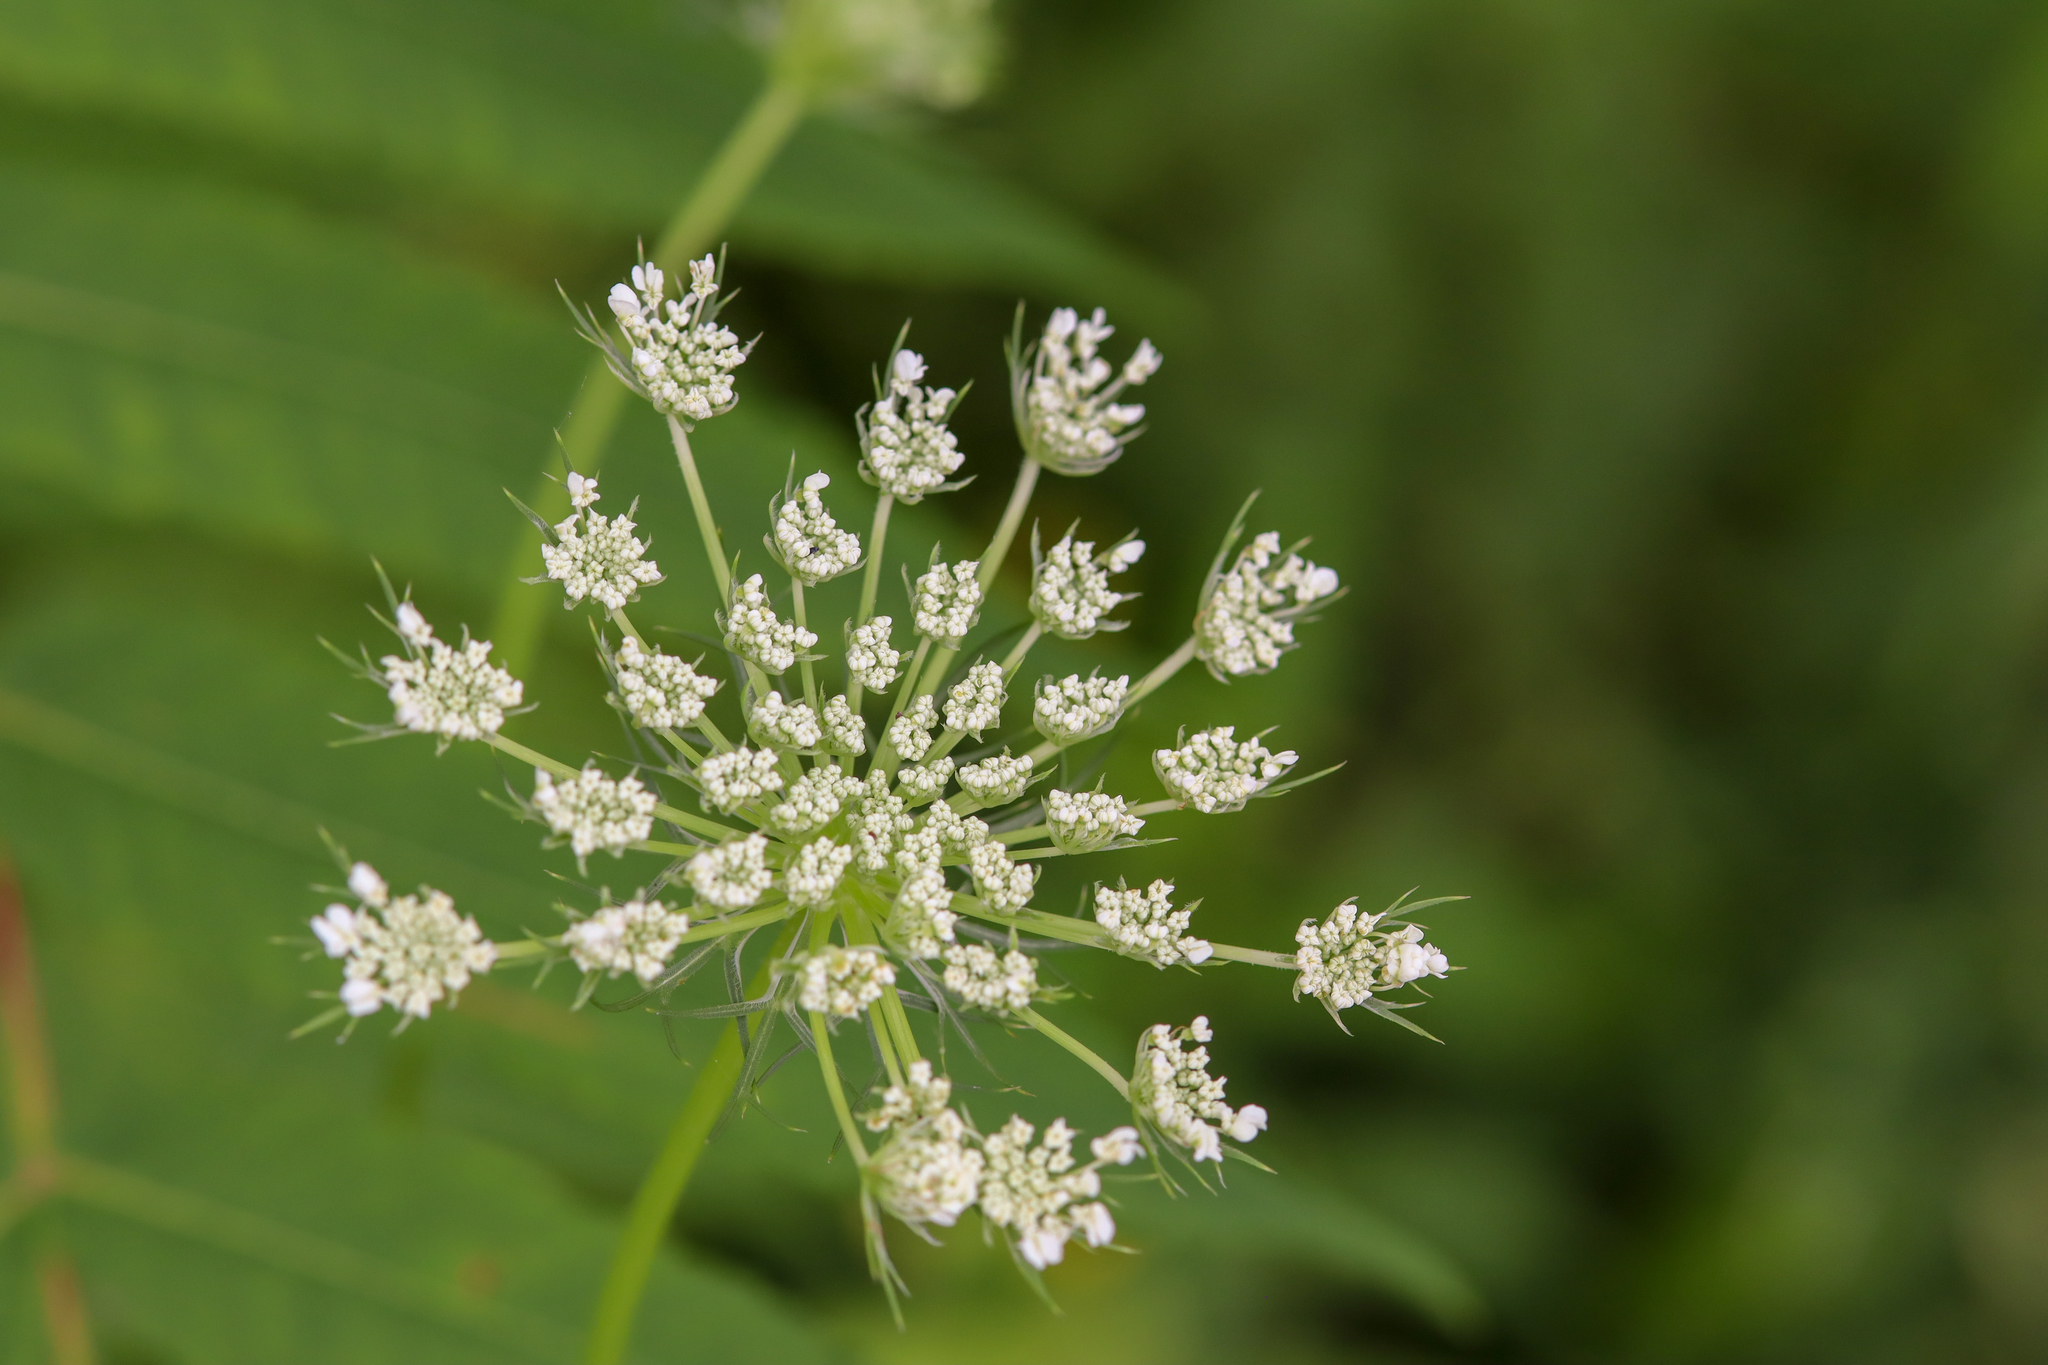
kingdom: Plantae
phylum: Tracheophyta
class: Magnoliopsida
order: Apiales
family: Apiaceae
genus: Daucus
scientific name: Daucus carota
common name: Wild carrot
